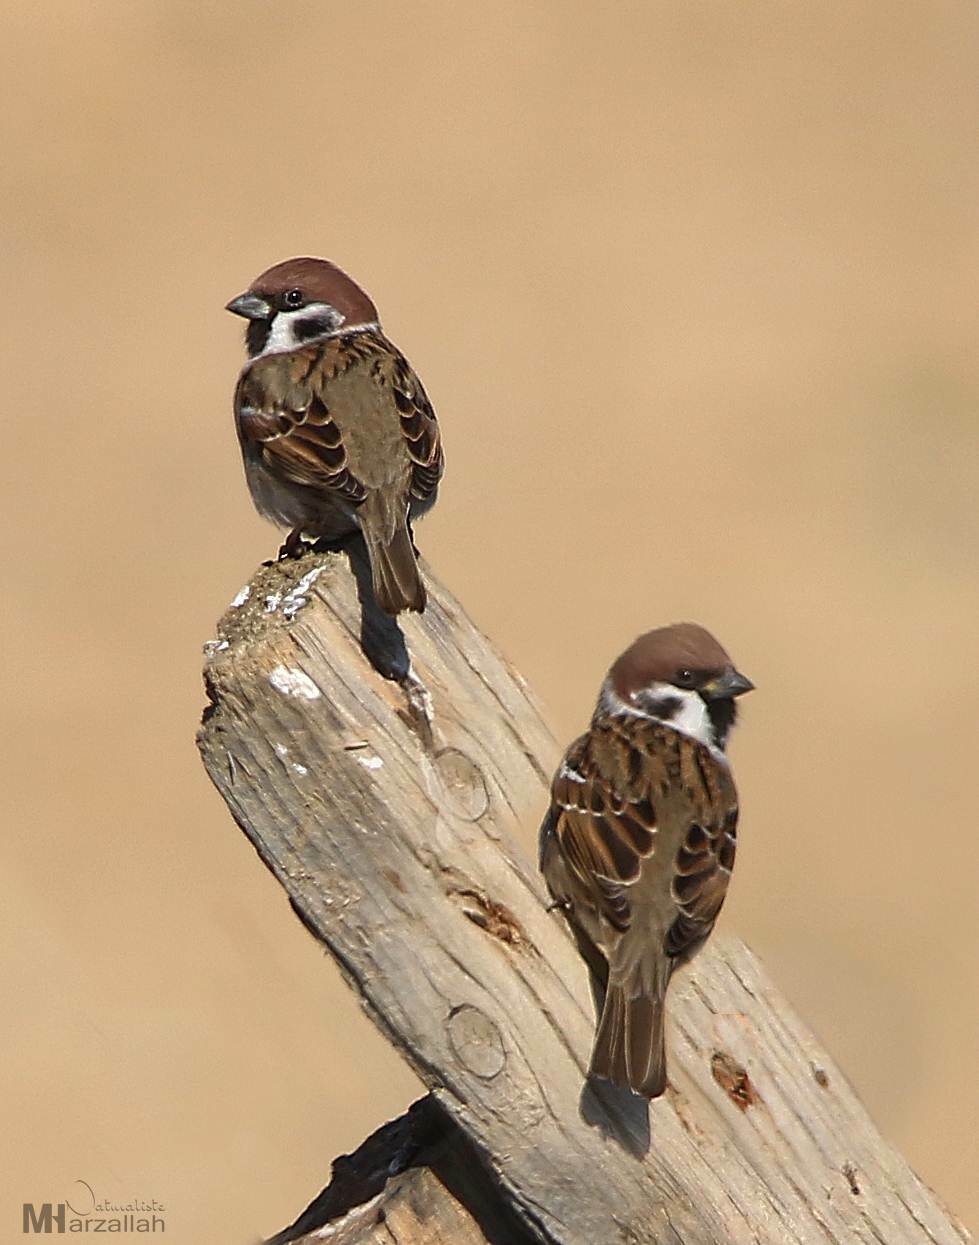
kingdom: Animalia
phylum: Chordata
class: Aves
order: Passeriformes
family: Passeridae
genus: Passer
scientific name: Passer montanus
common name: Eurasian tree sparrow
